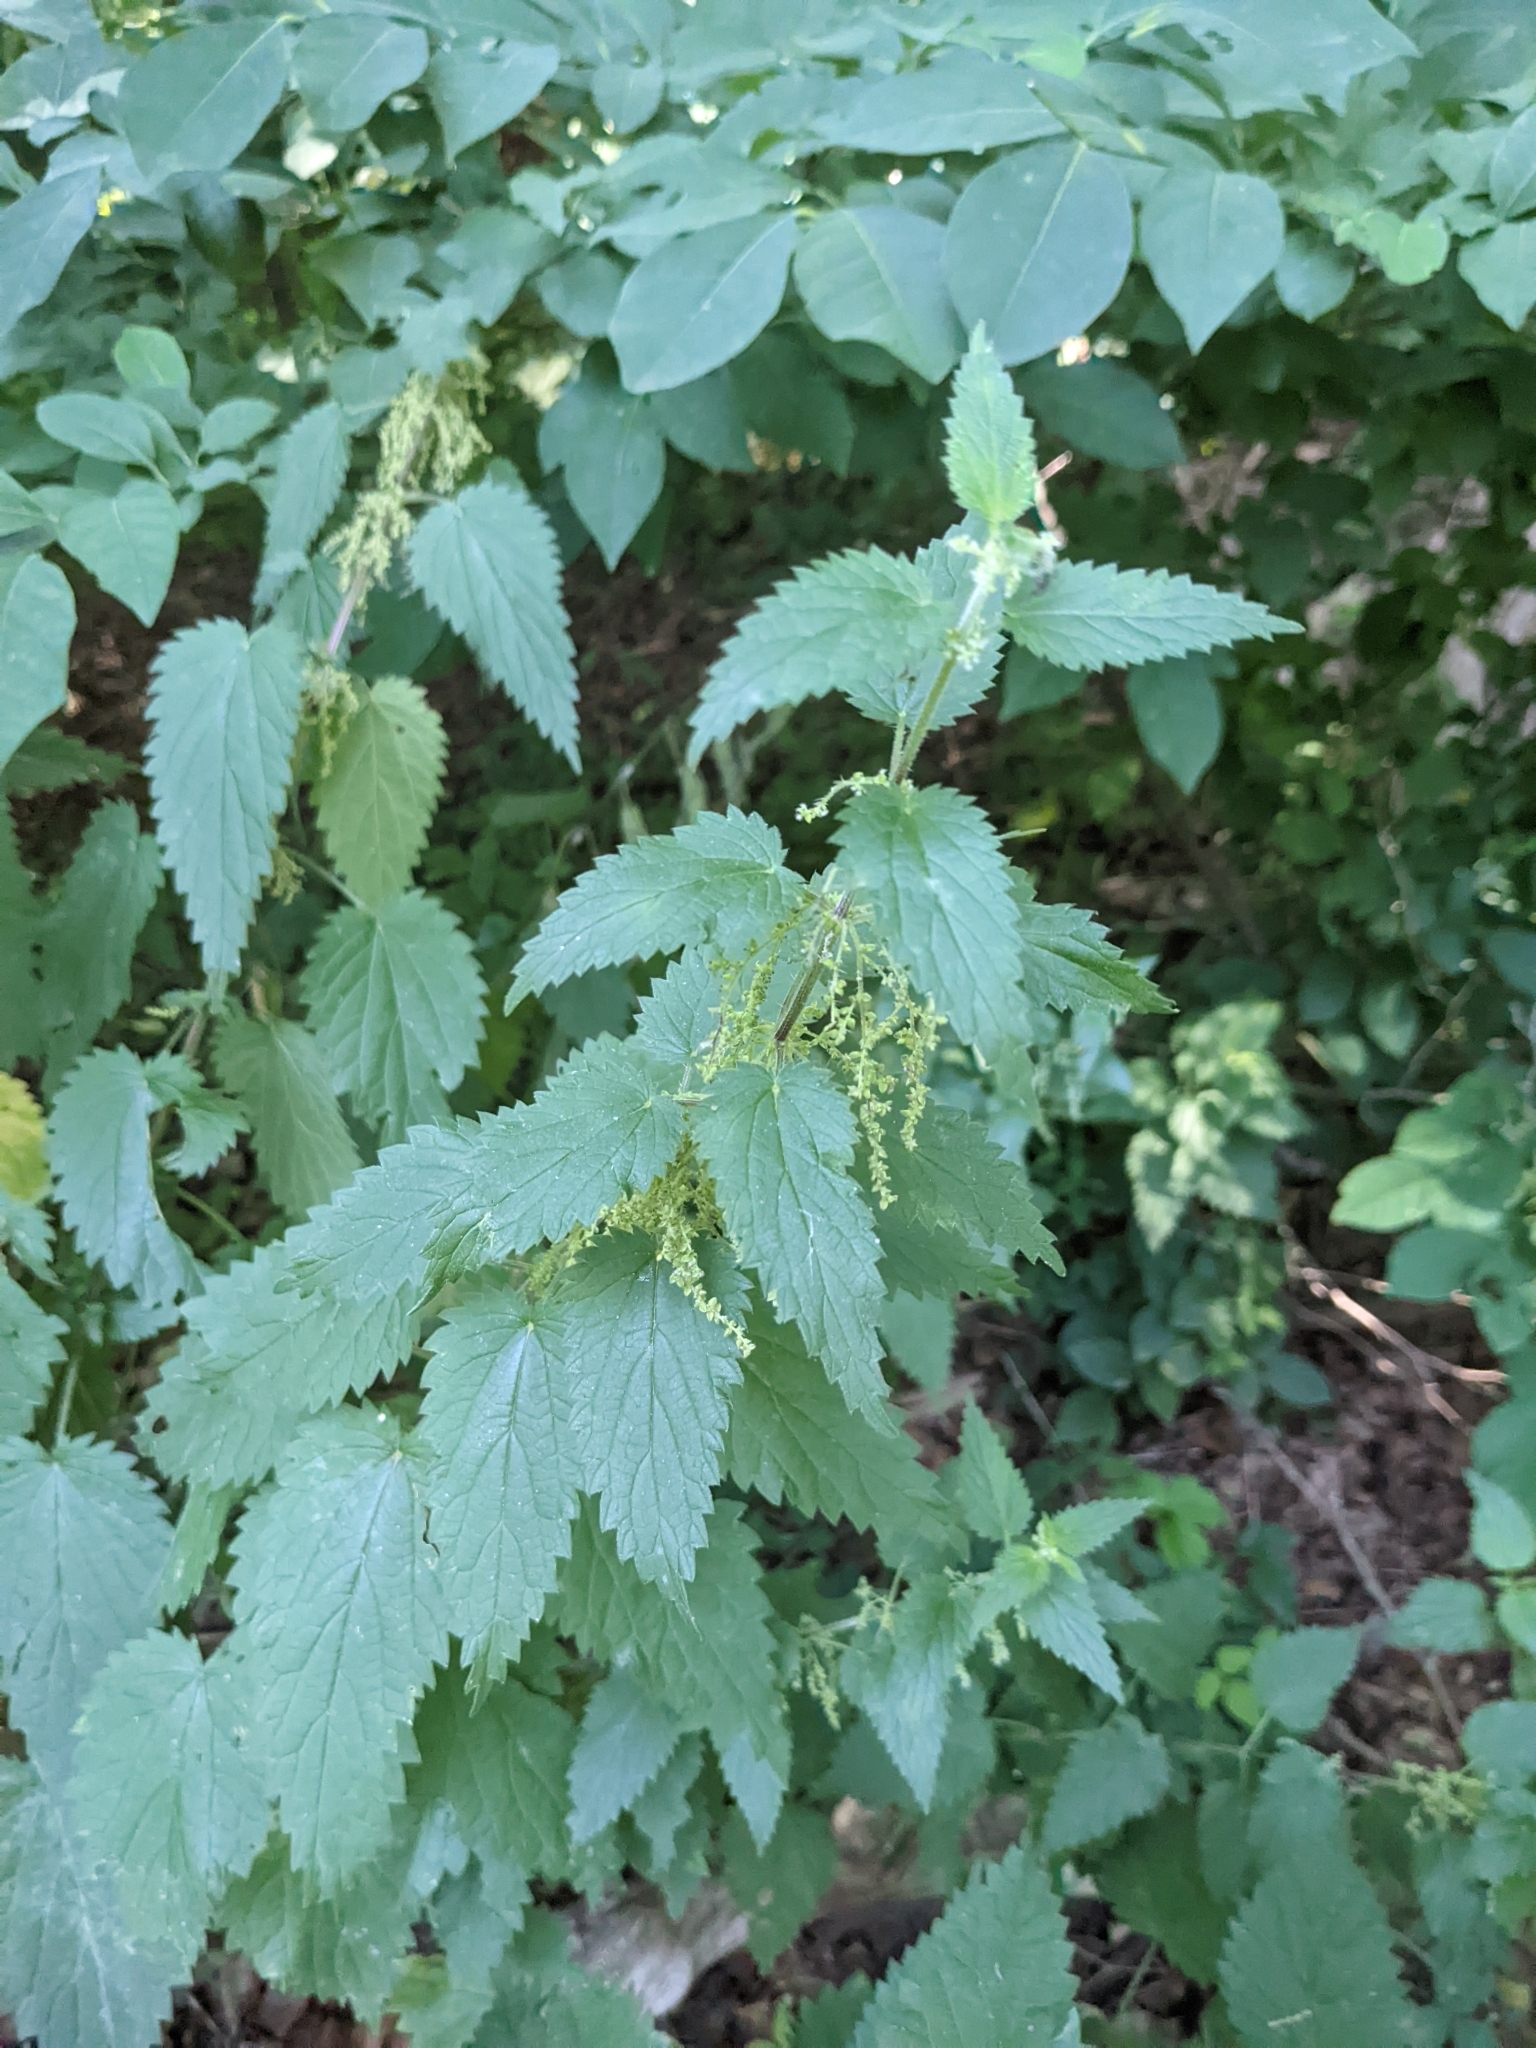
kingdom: Plantae
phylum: Tracheophyta
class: Magnoliopsida
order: Rosales
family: Urticaceae
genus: Urtica
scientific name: Urtica dioica
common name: Common nettle
